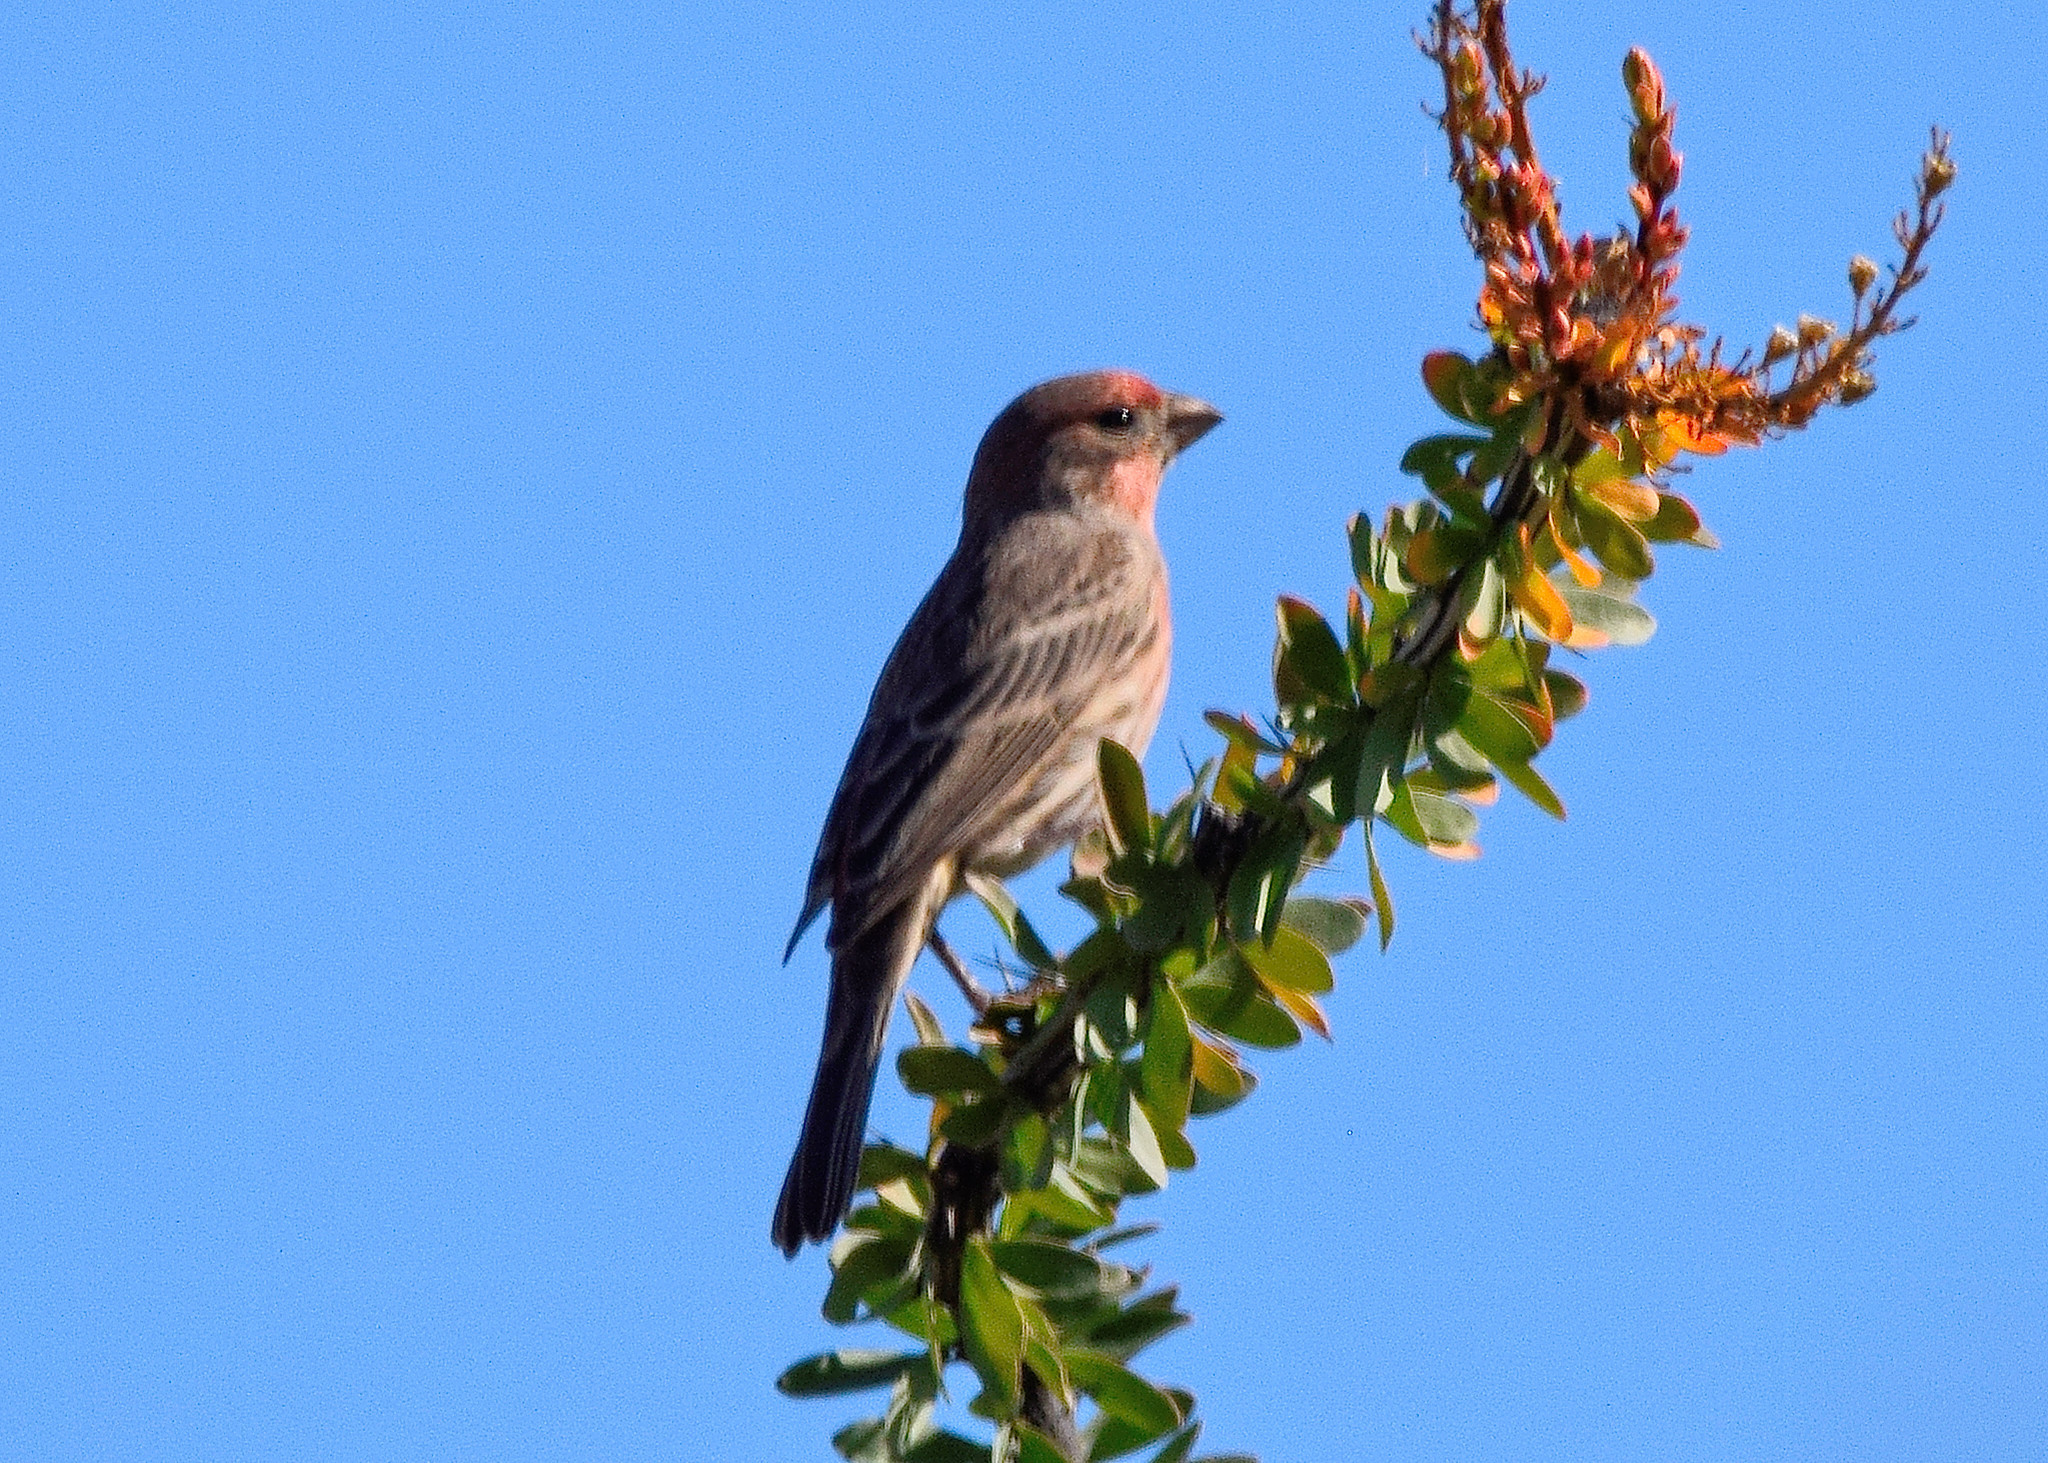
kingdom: Animalia
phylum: Chordata
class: Aves
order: Passeriformes
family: Fringillidae
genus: Haemorhous
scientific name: Haemorhous mexicanus
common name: House finch
